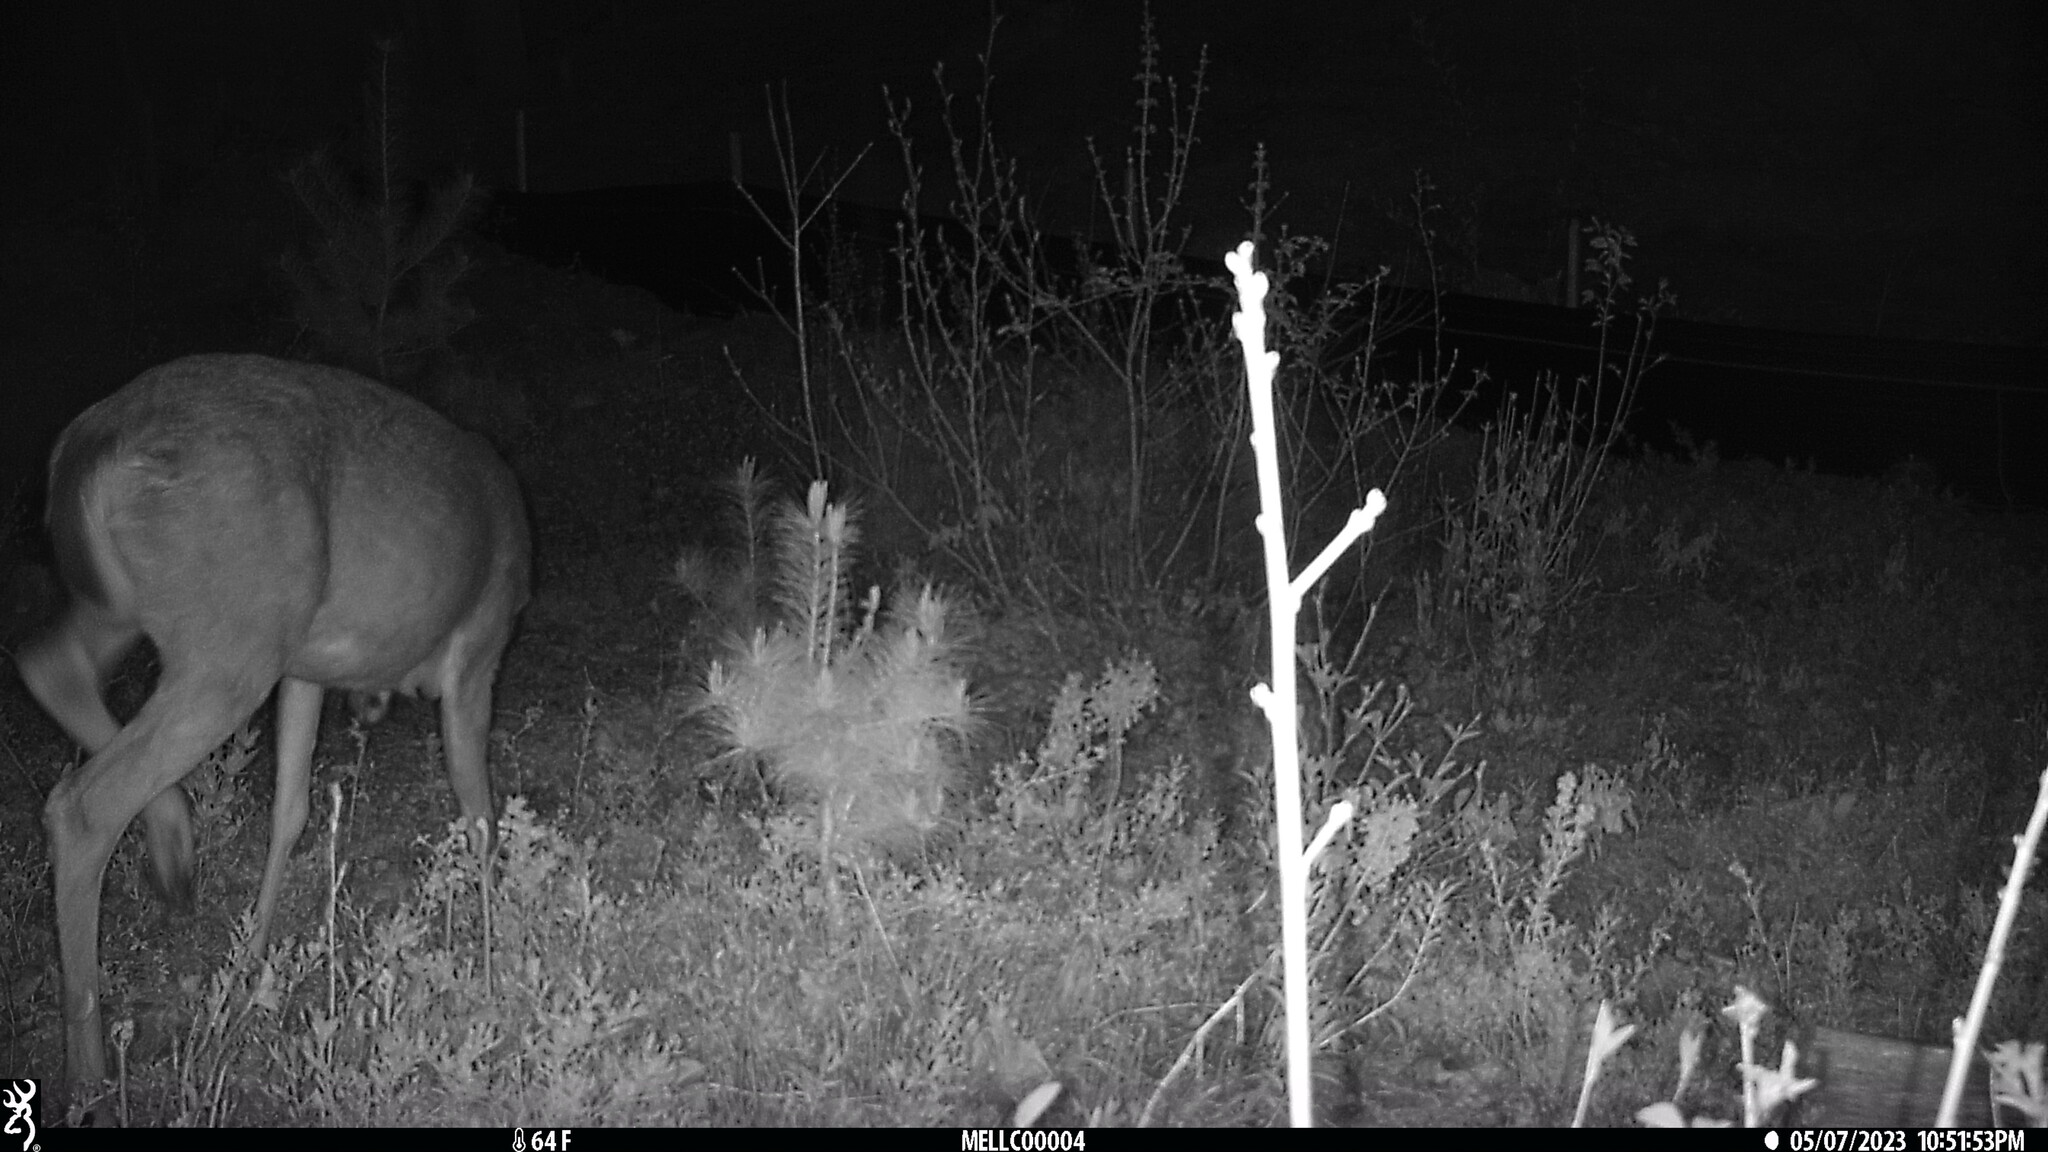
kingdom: Animalia
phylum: Chordata
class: Mammalia
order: Artiodactyla
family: Cervidae
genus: Odocoileus
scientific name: Odocoileus virginianus
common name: White-tailed deer
